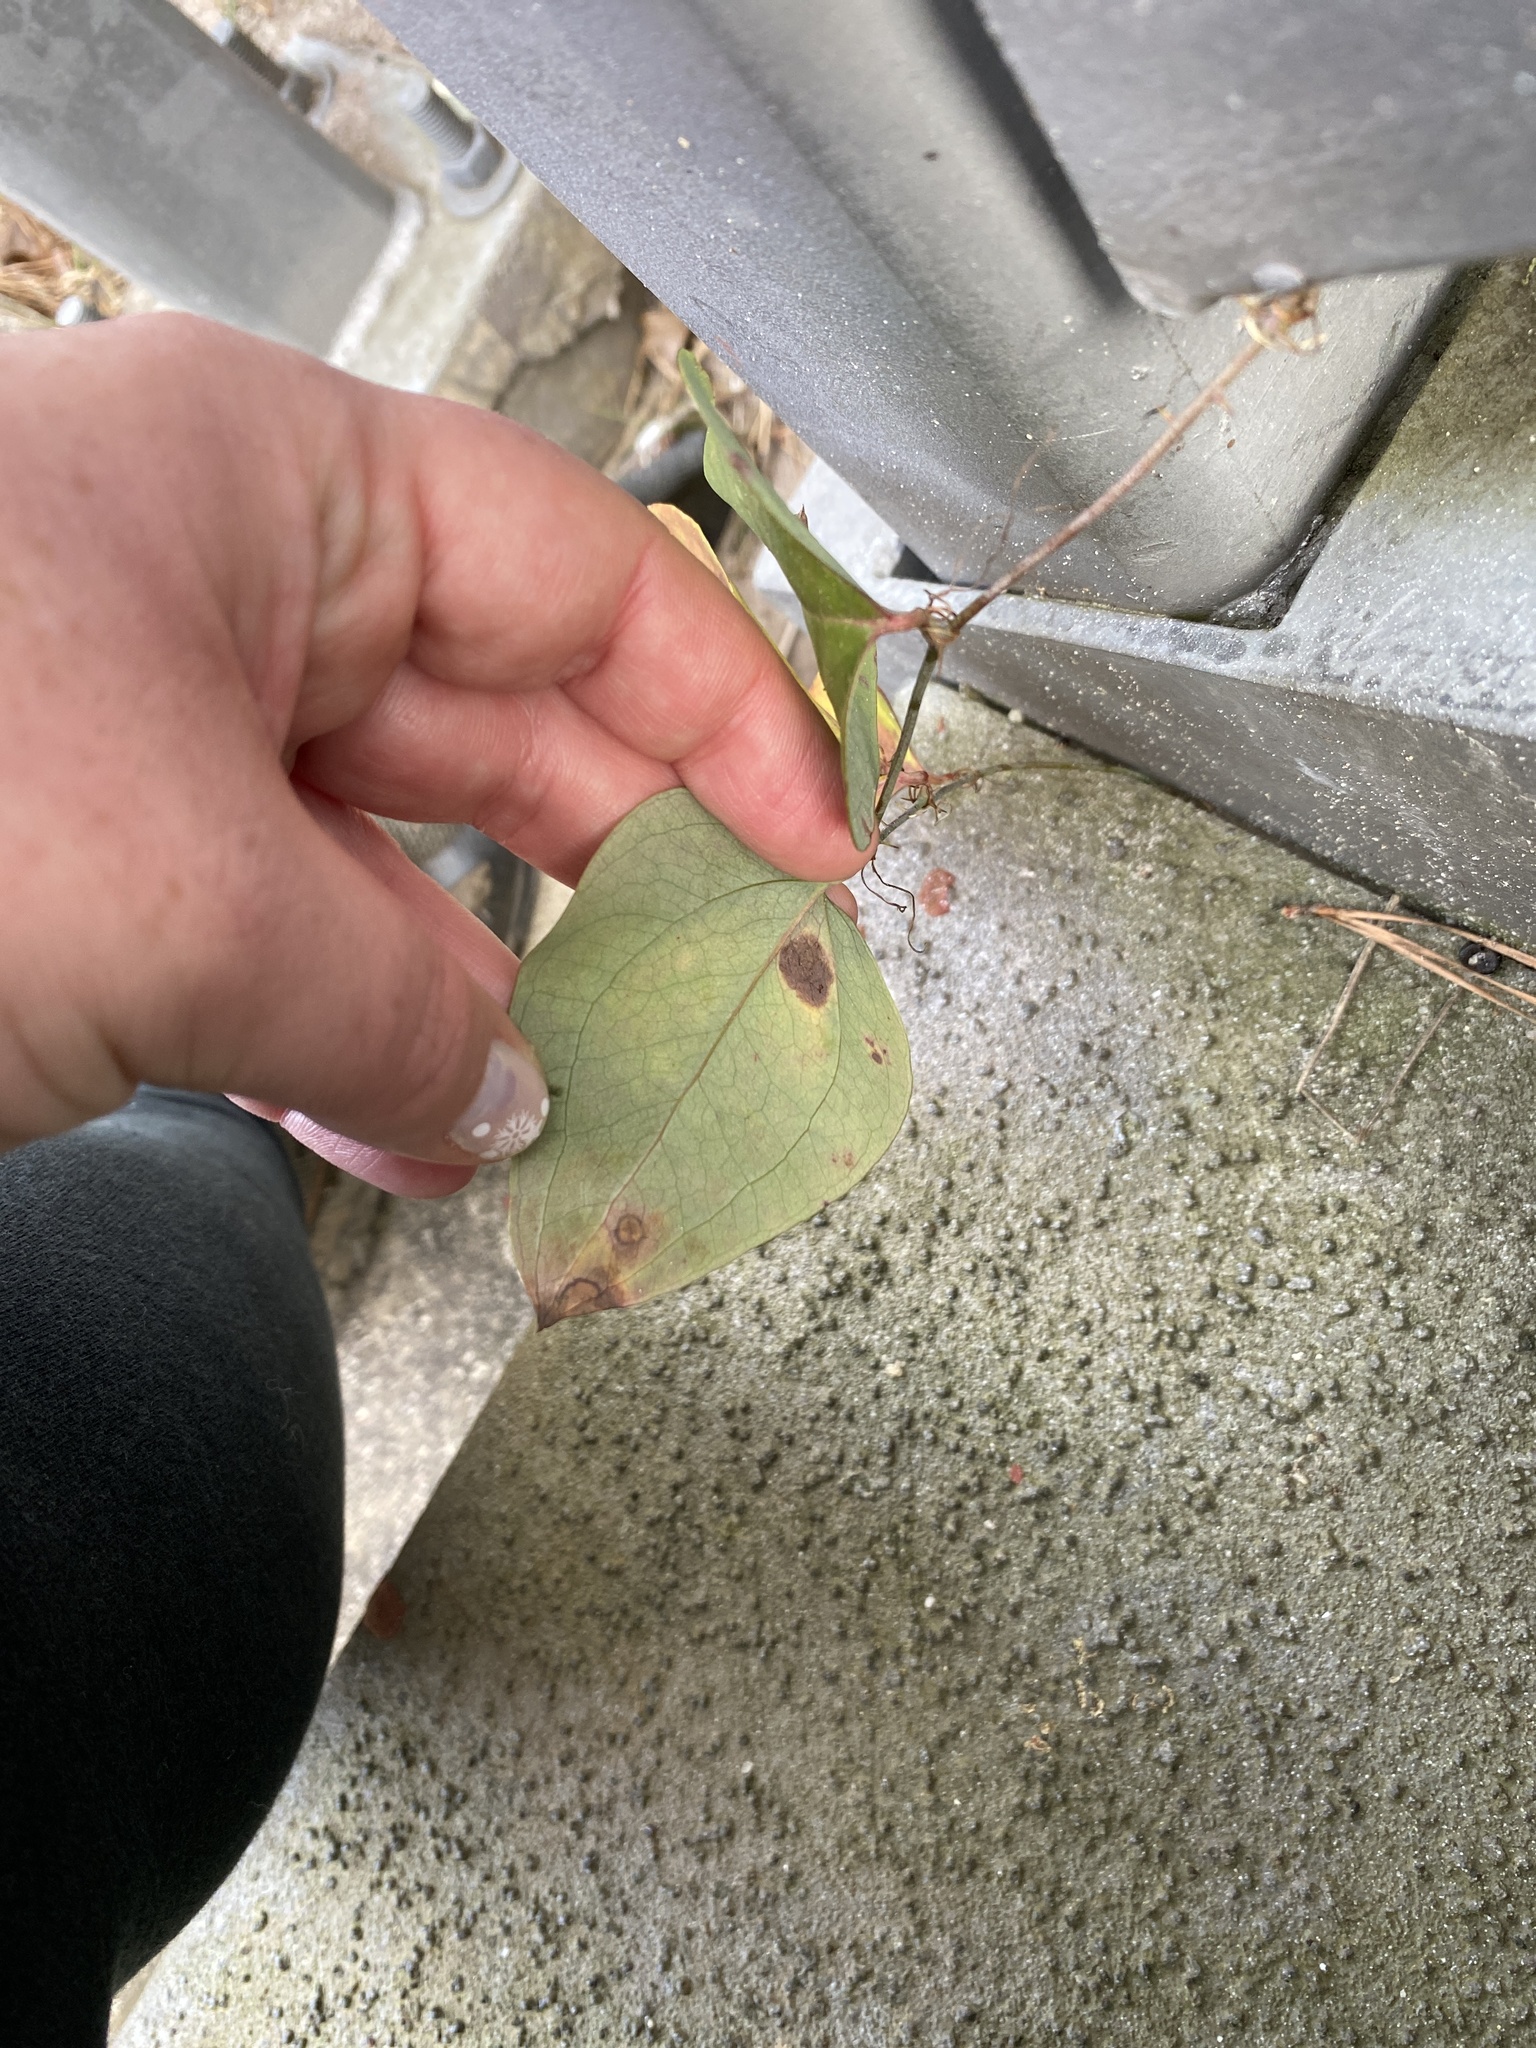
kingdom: Plantae
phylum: Tracheophyta
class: Liliopsida
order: Liliales
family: Smilacaceae
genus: Smilax
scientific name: Smilax glauca
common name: Cat greenbrier
